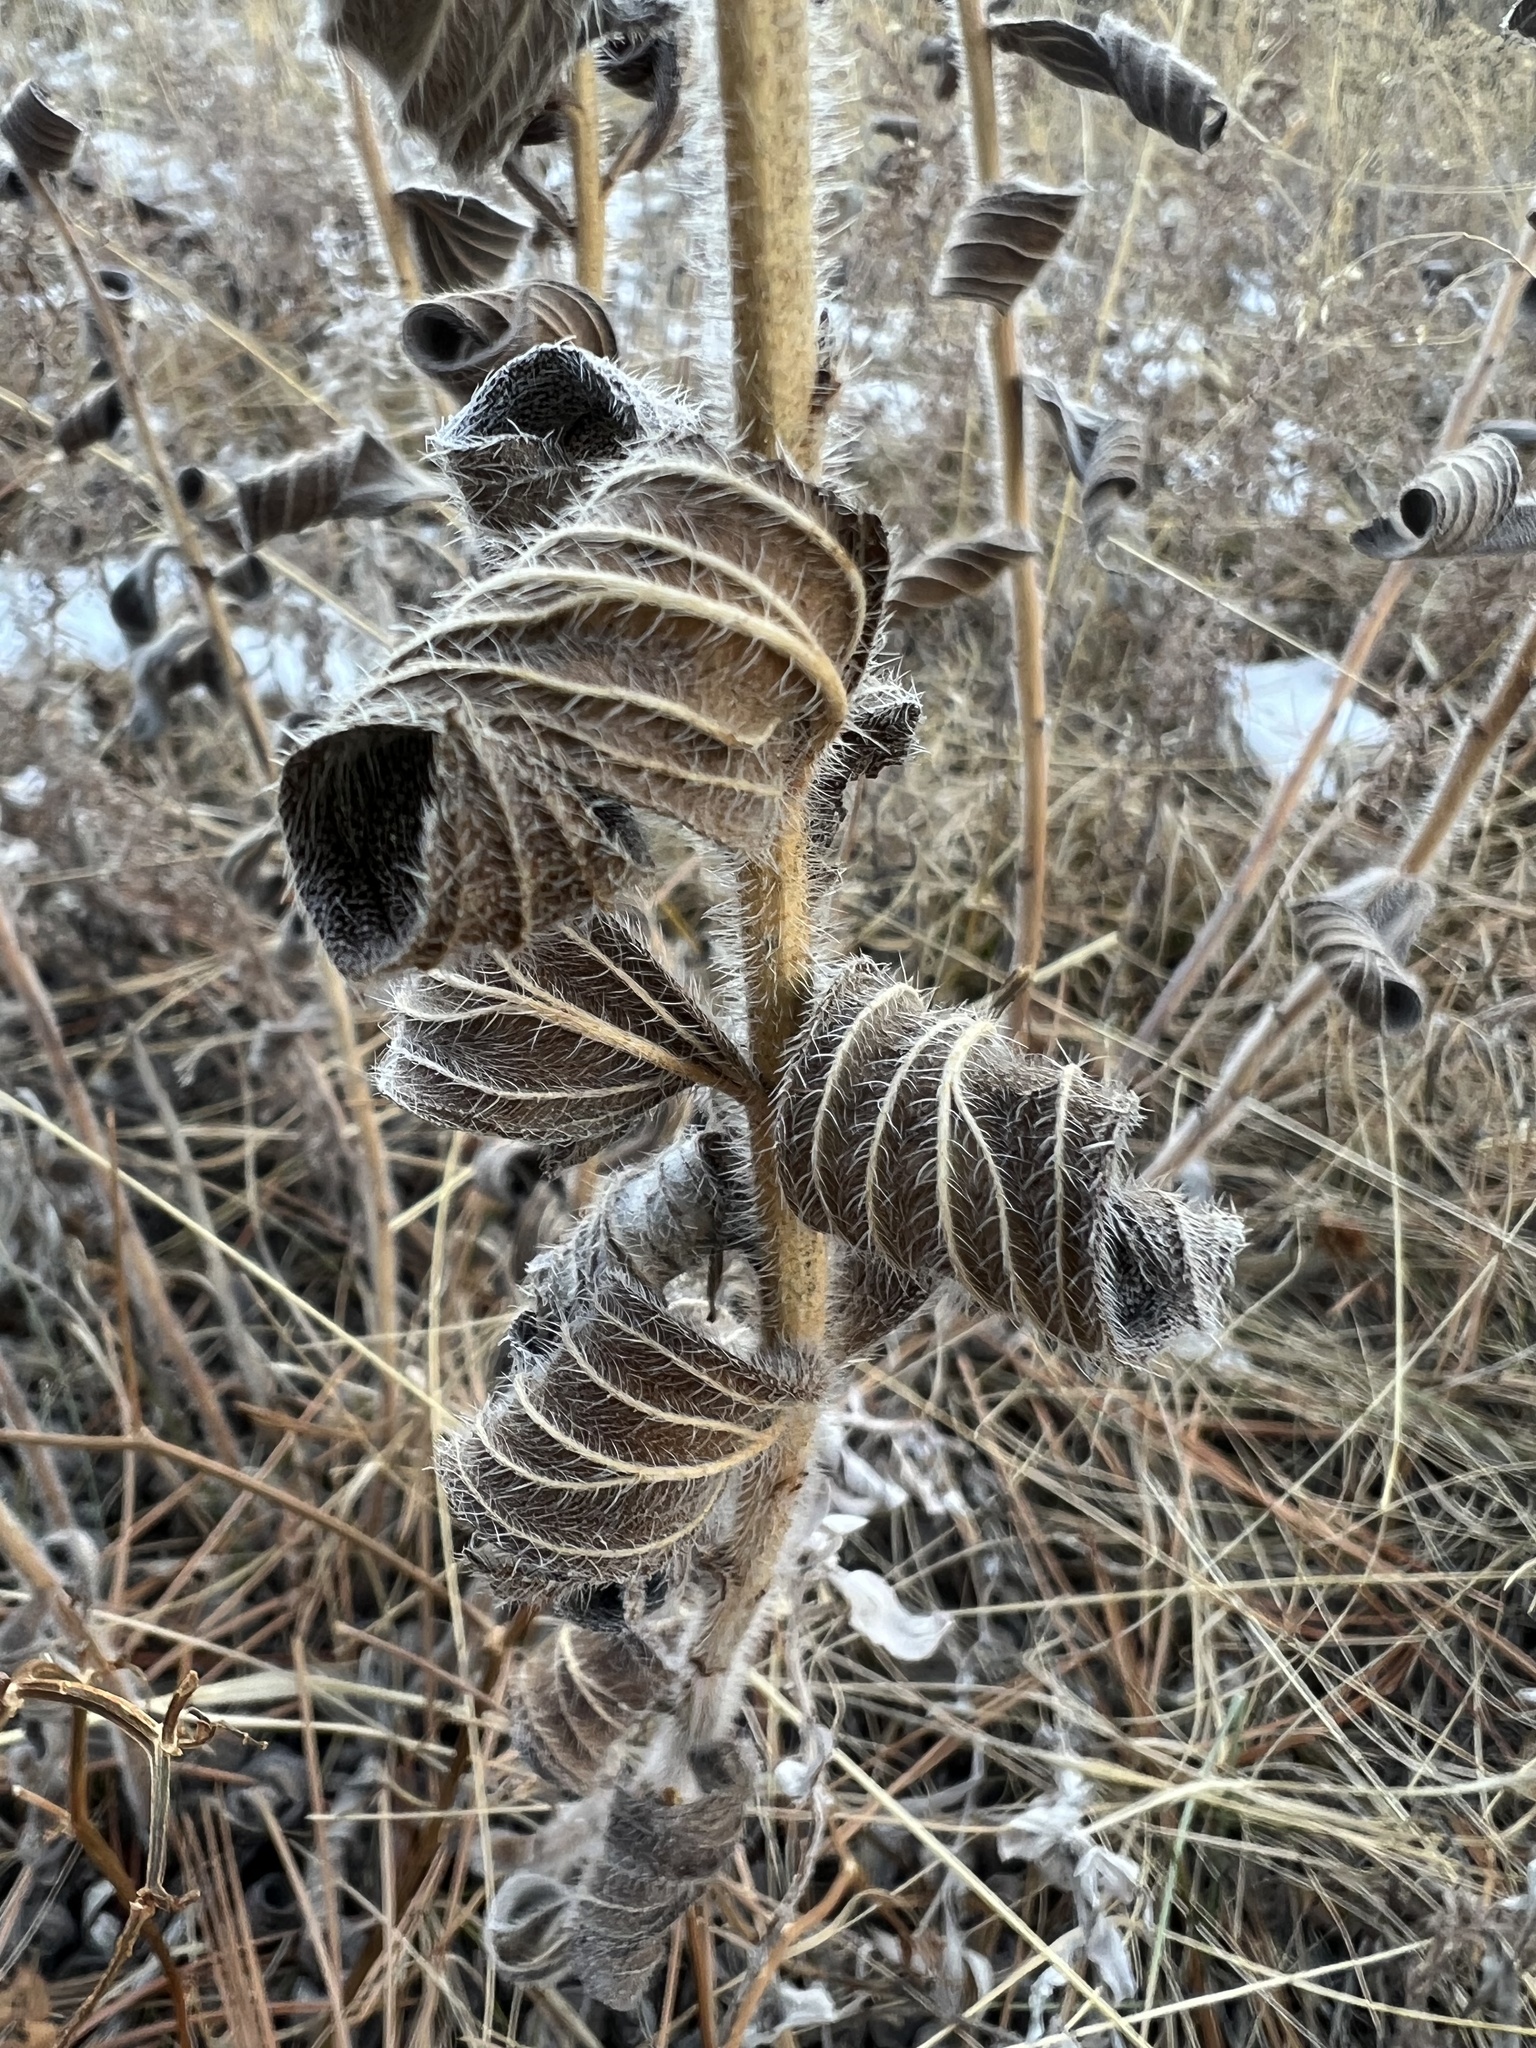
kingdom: Plantae
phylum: Tracheophyta
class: Magnoliopsida
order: Boraginales
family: Boraginaceae
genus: Lithospermum
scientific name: Lithospermum occidentale
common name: Western false gromwell
